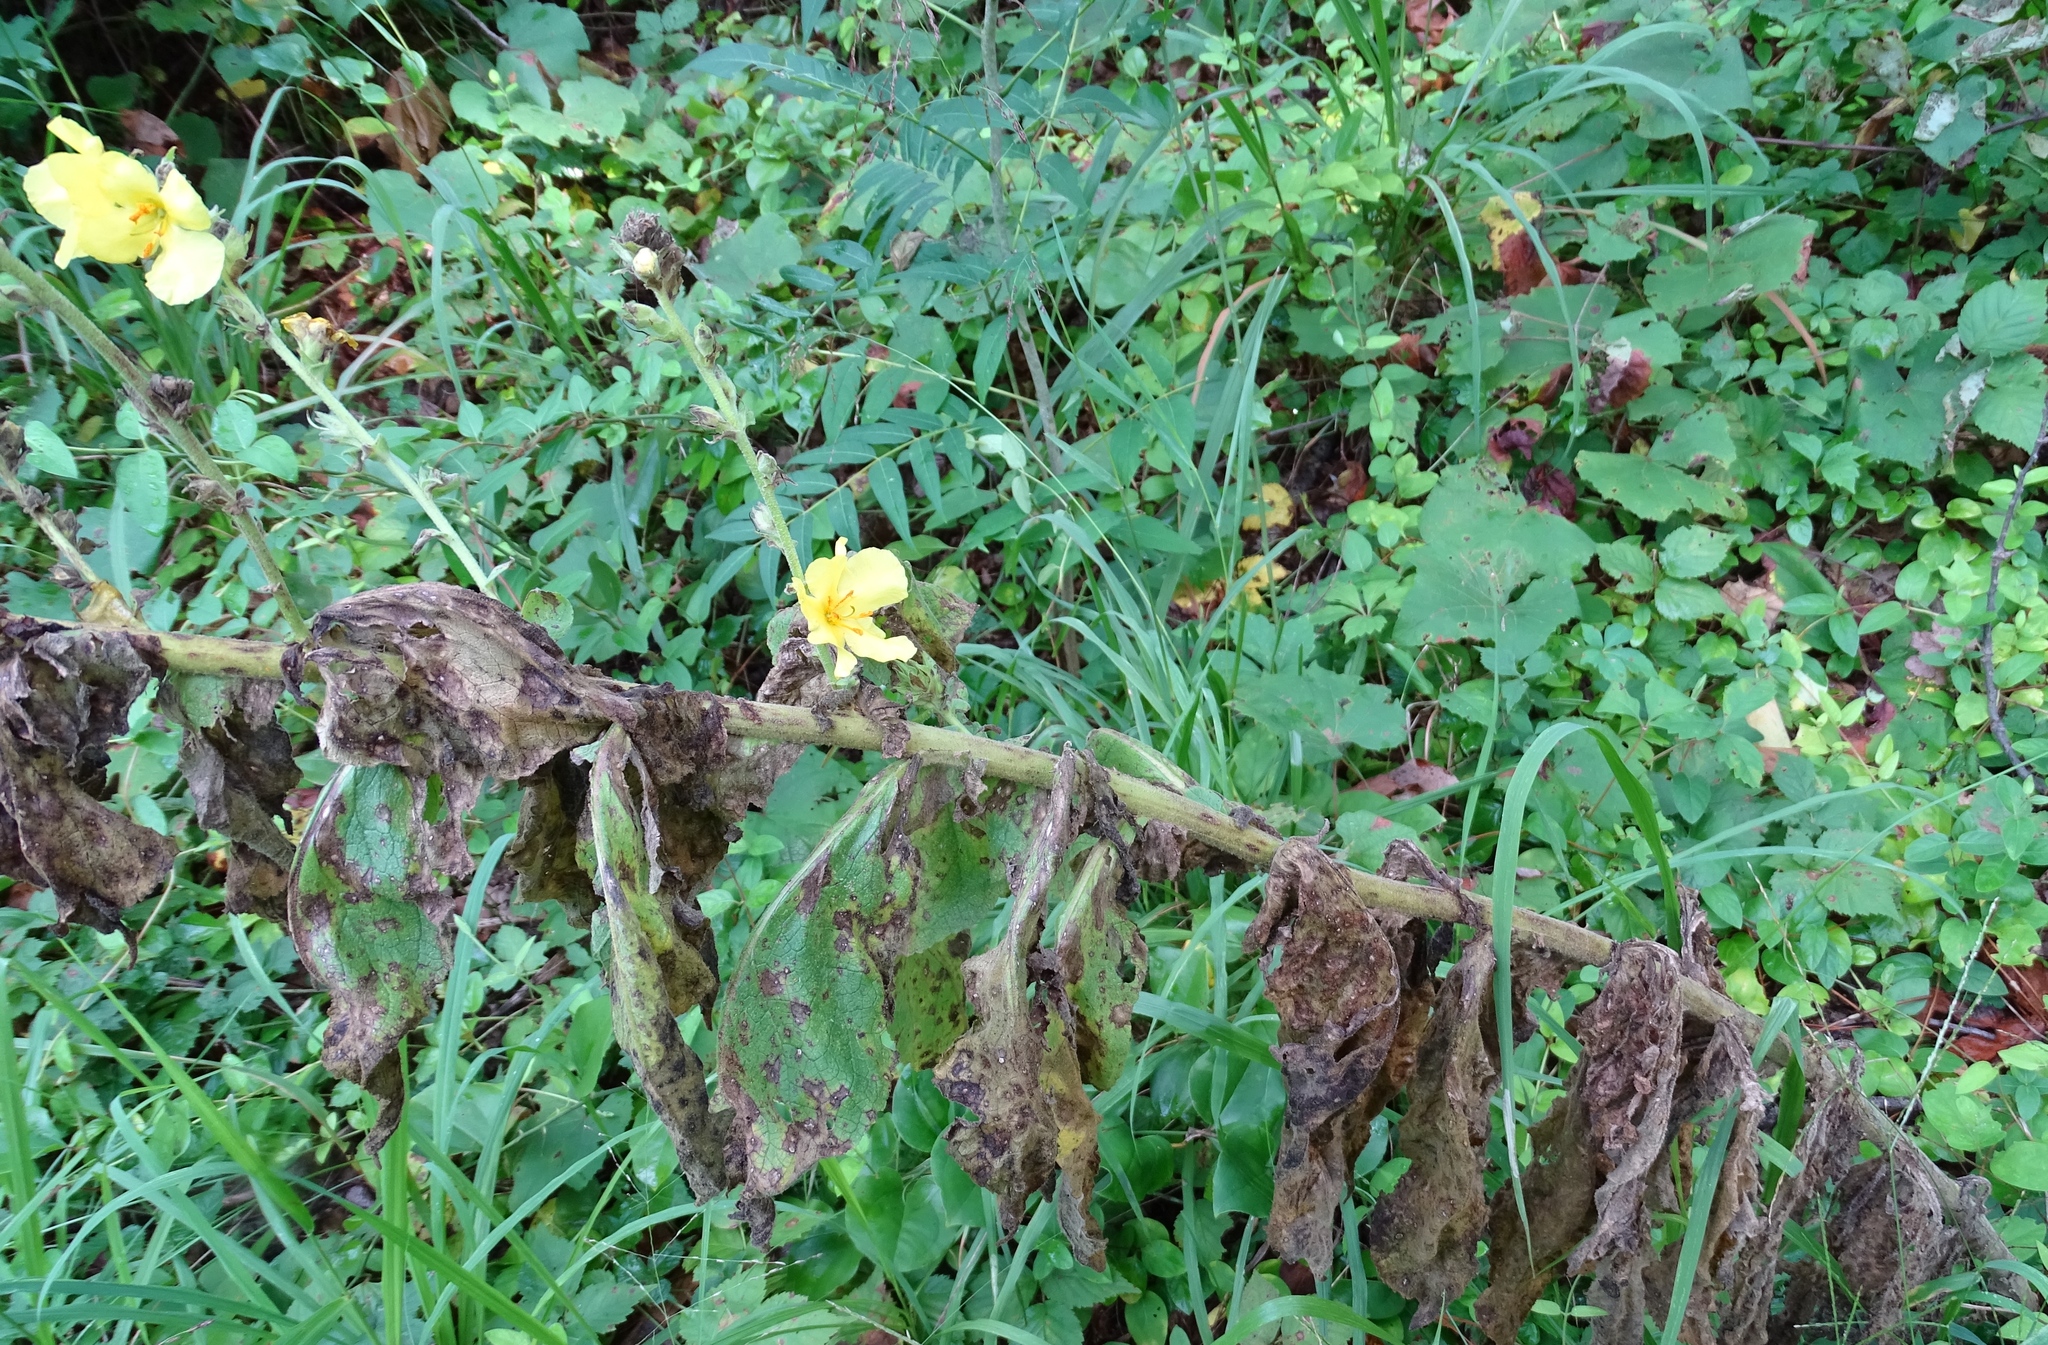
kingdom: Plantae
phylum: Tracheophyta
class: Magnoliopsida
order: Lamiales
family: Scrophulariaceae
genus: Verbascum
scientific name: Verbascum phlomoides
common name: Orange mullein
